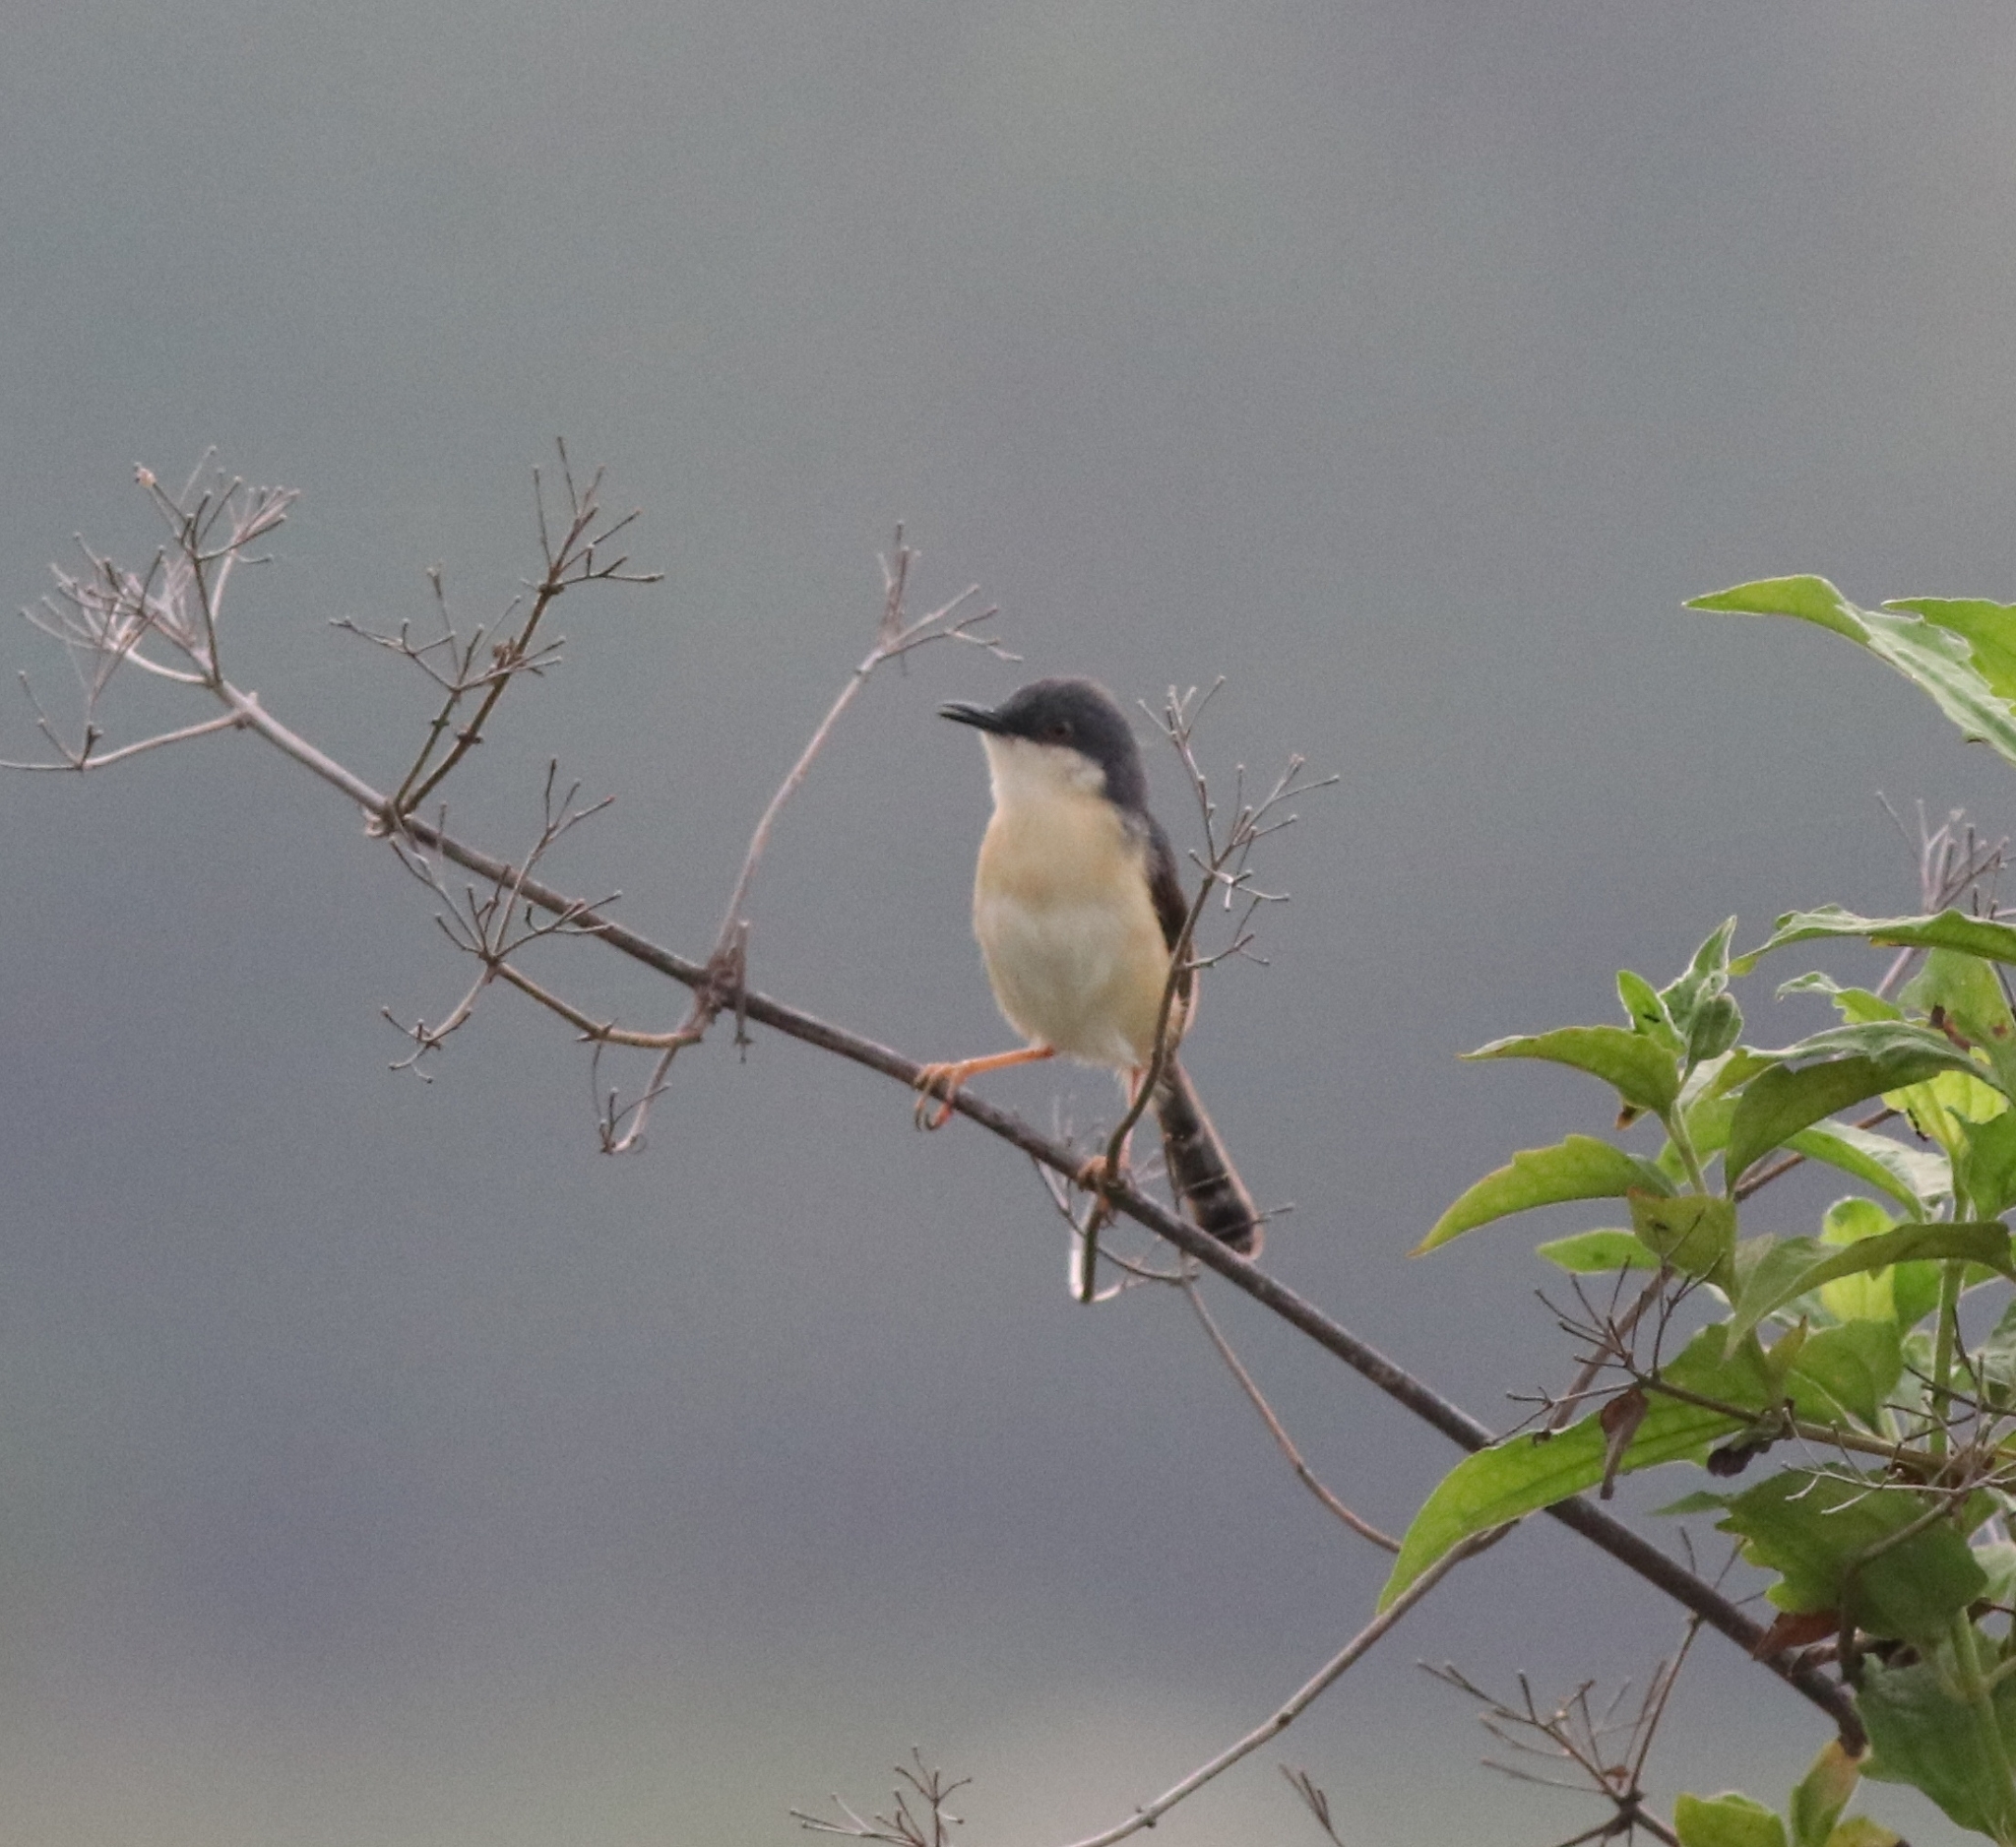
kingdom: Animalia
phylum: Chordata
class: Aves
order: Passeriformes
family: Cisticolidae
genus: Prinia
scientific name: Prinia socialis
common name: Ashy prinia
